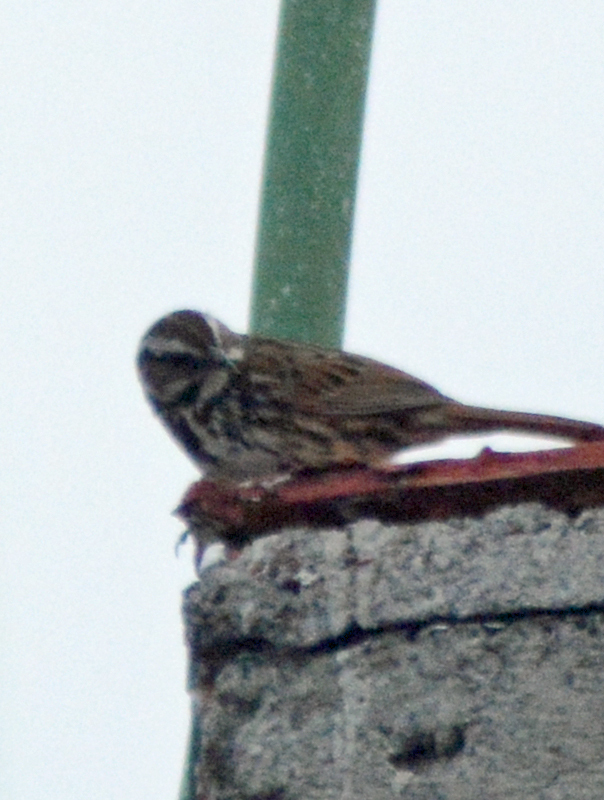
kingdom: Animalia
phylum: Chordata
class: Aves
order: Passeriformes
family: Passerellidae
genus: Melospiza
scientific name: Melospiza melodia
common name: Song sparrow
